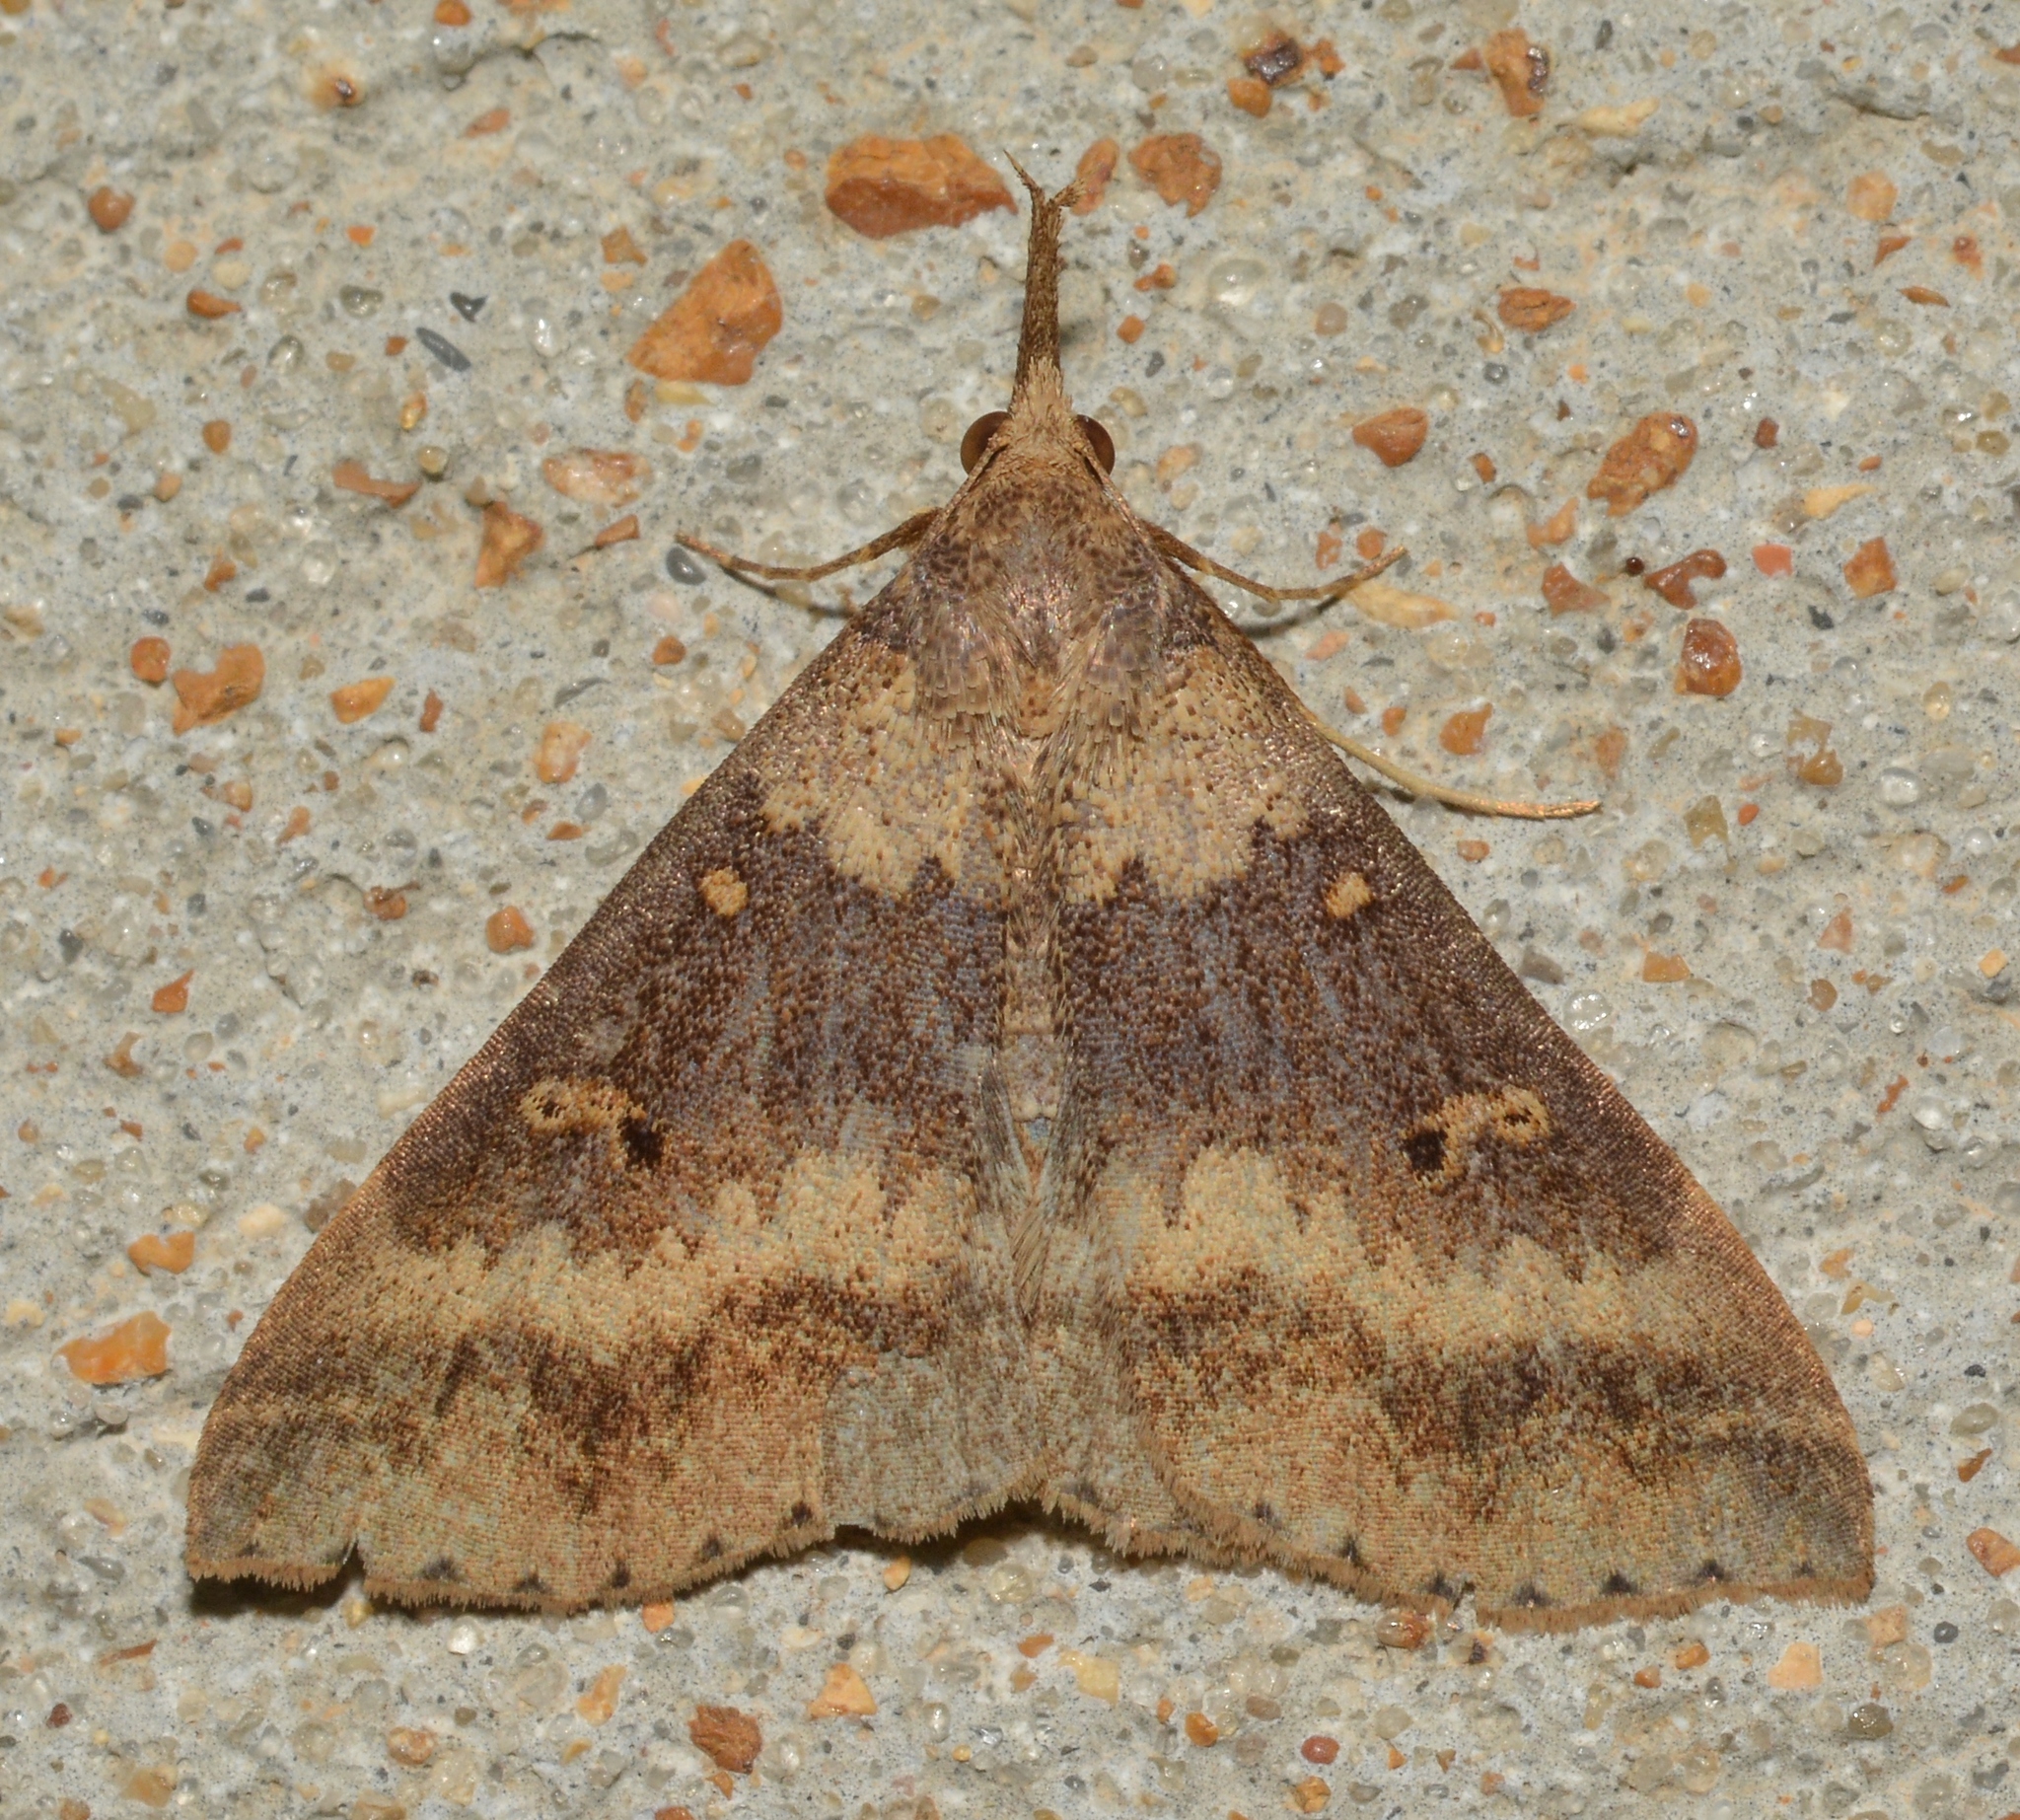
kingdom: Animalia
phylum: Arthropoda
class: Insecta
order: Lepidoptera
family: Erebidae
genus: Renia
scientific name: Renia discoloralis
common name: Discolored renia moth
